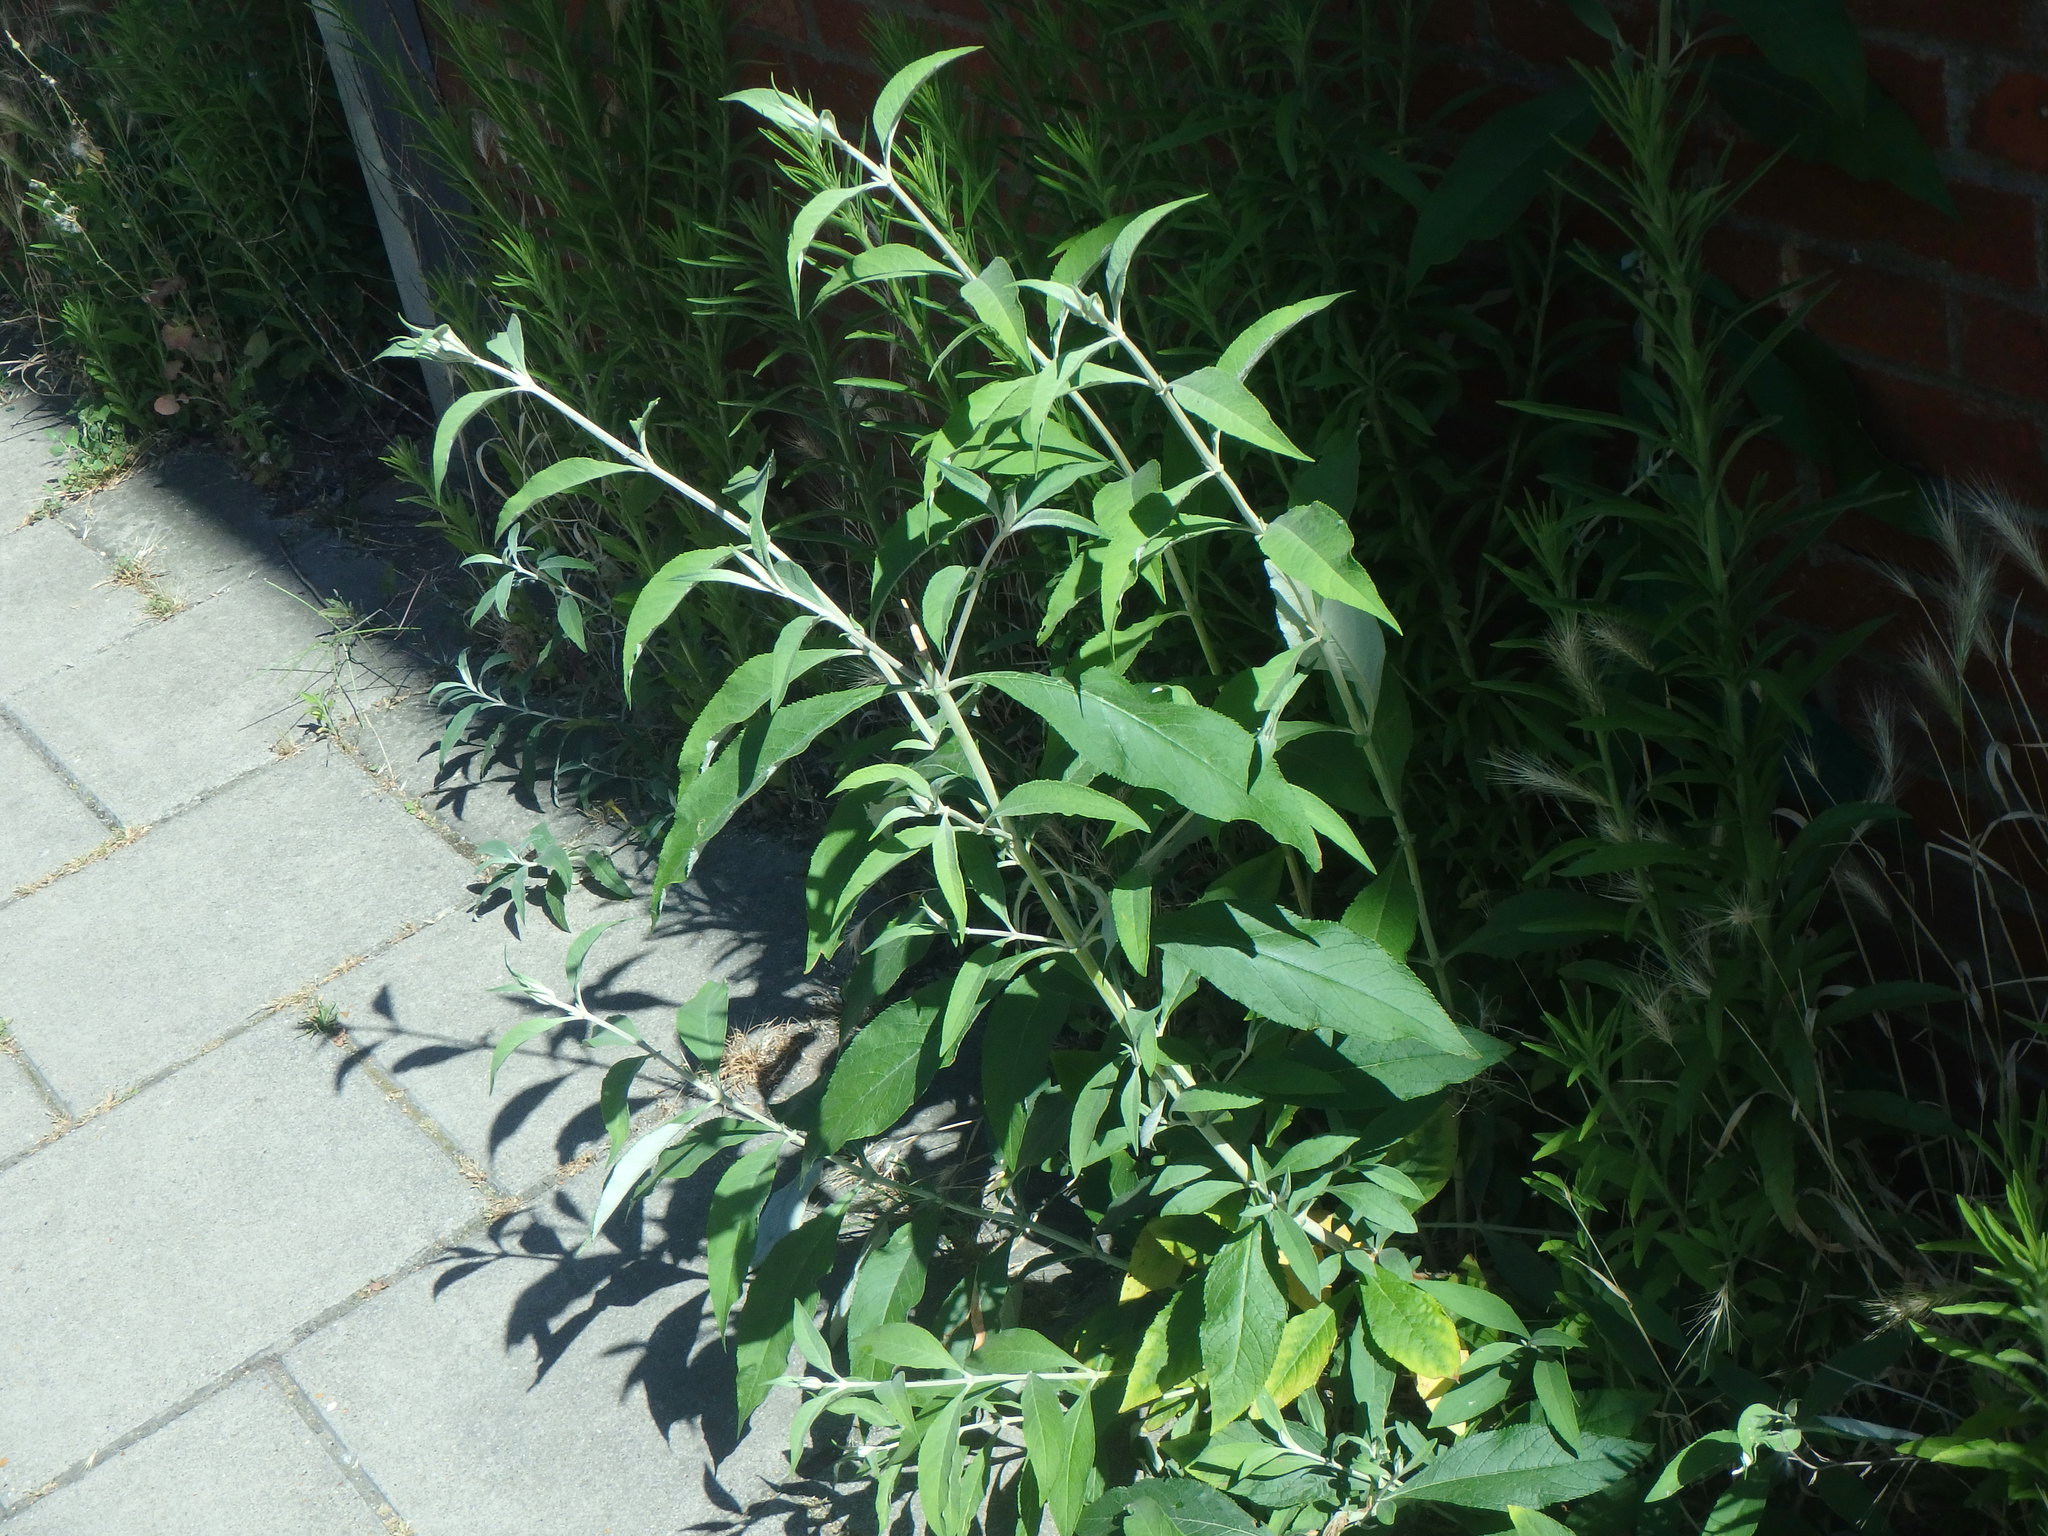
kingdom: Plantae
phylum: Tracheophyta
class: Magnoliopsida
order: Lamiales
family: Scrophulariaceae
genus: Buddleja
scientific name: Buddleja davidii
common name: Butterfly-bush
